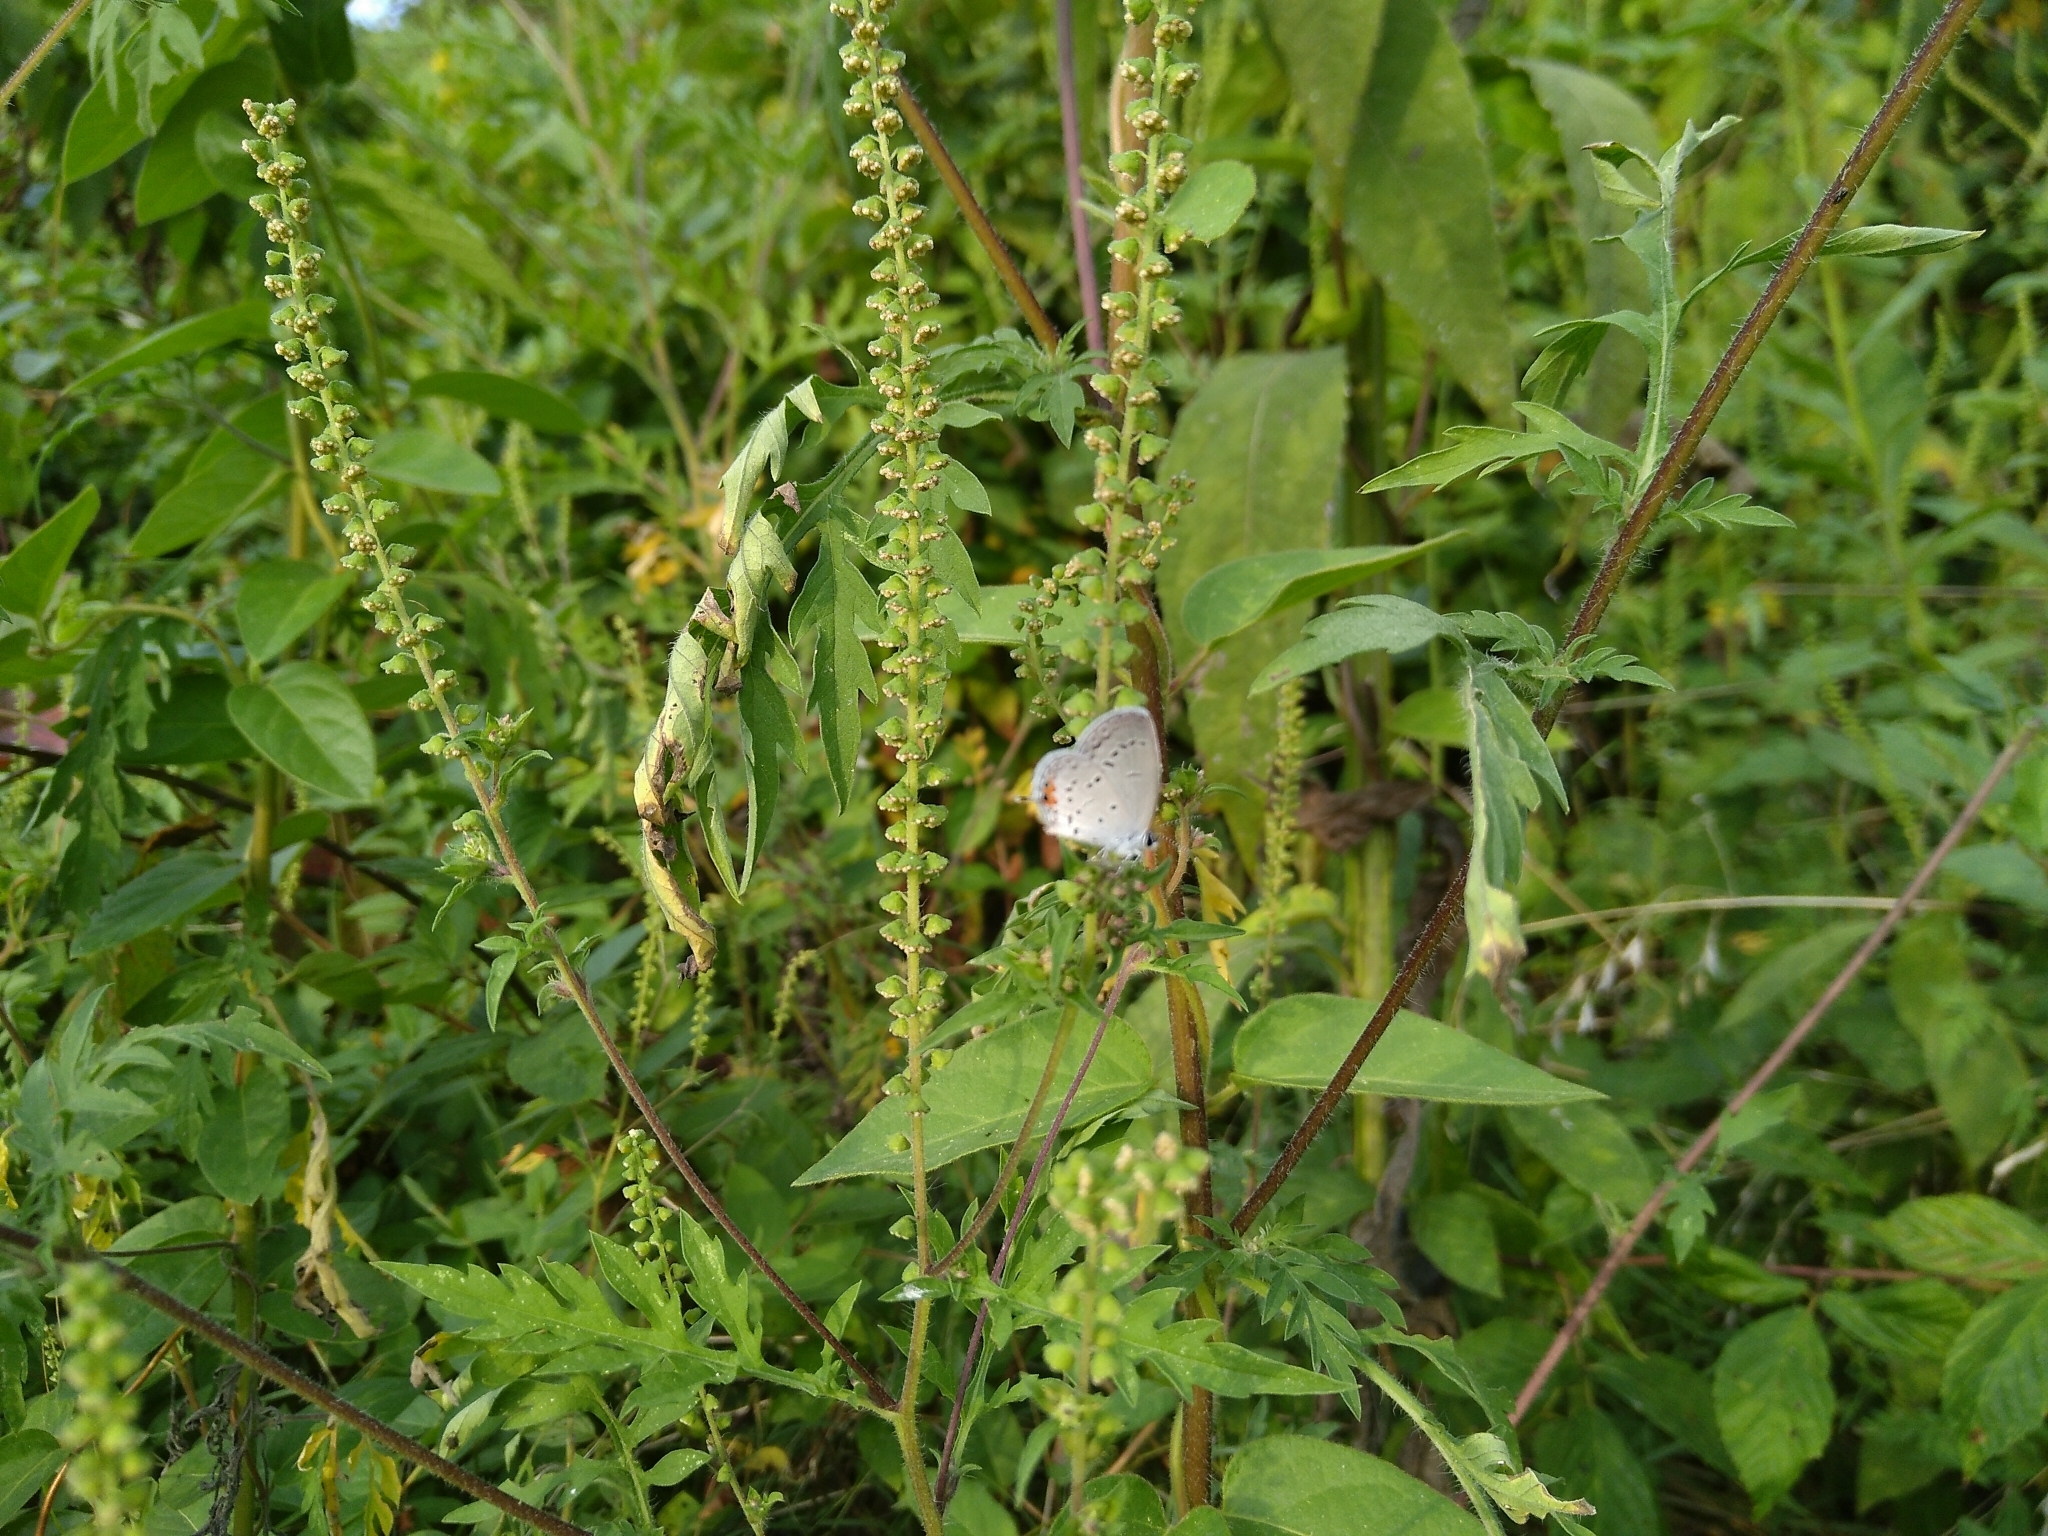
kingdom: Animalia
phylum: Arthropoda
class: Insecta
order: Lepidoptera
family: Lycaenidae
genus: Elkalyce
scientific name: Elkalyce comyntas
